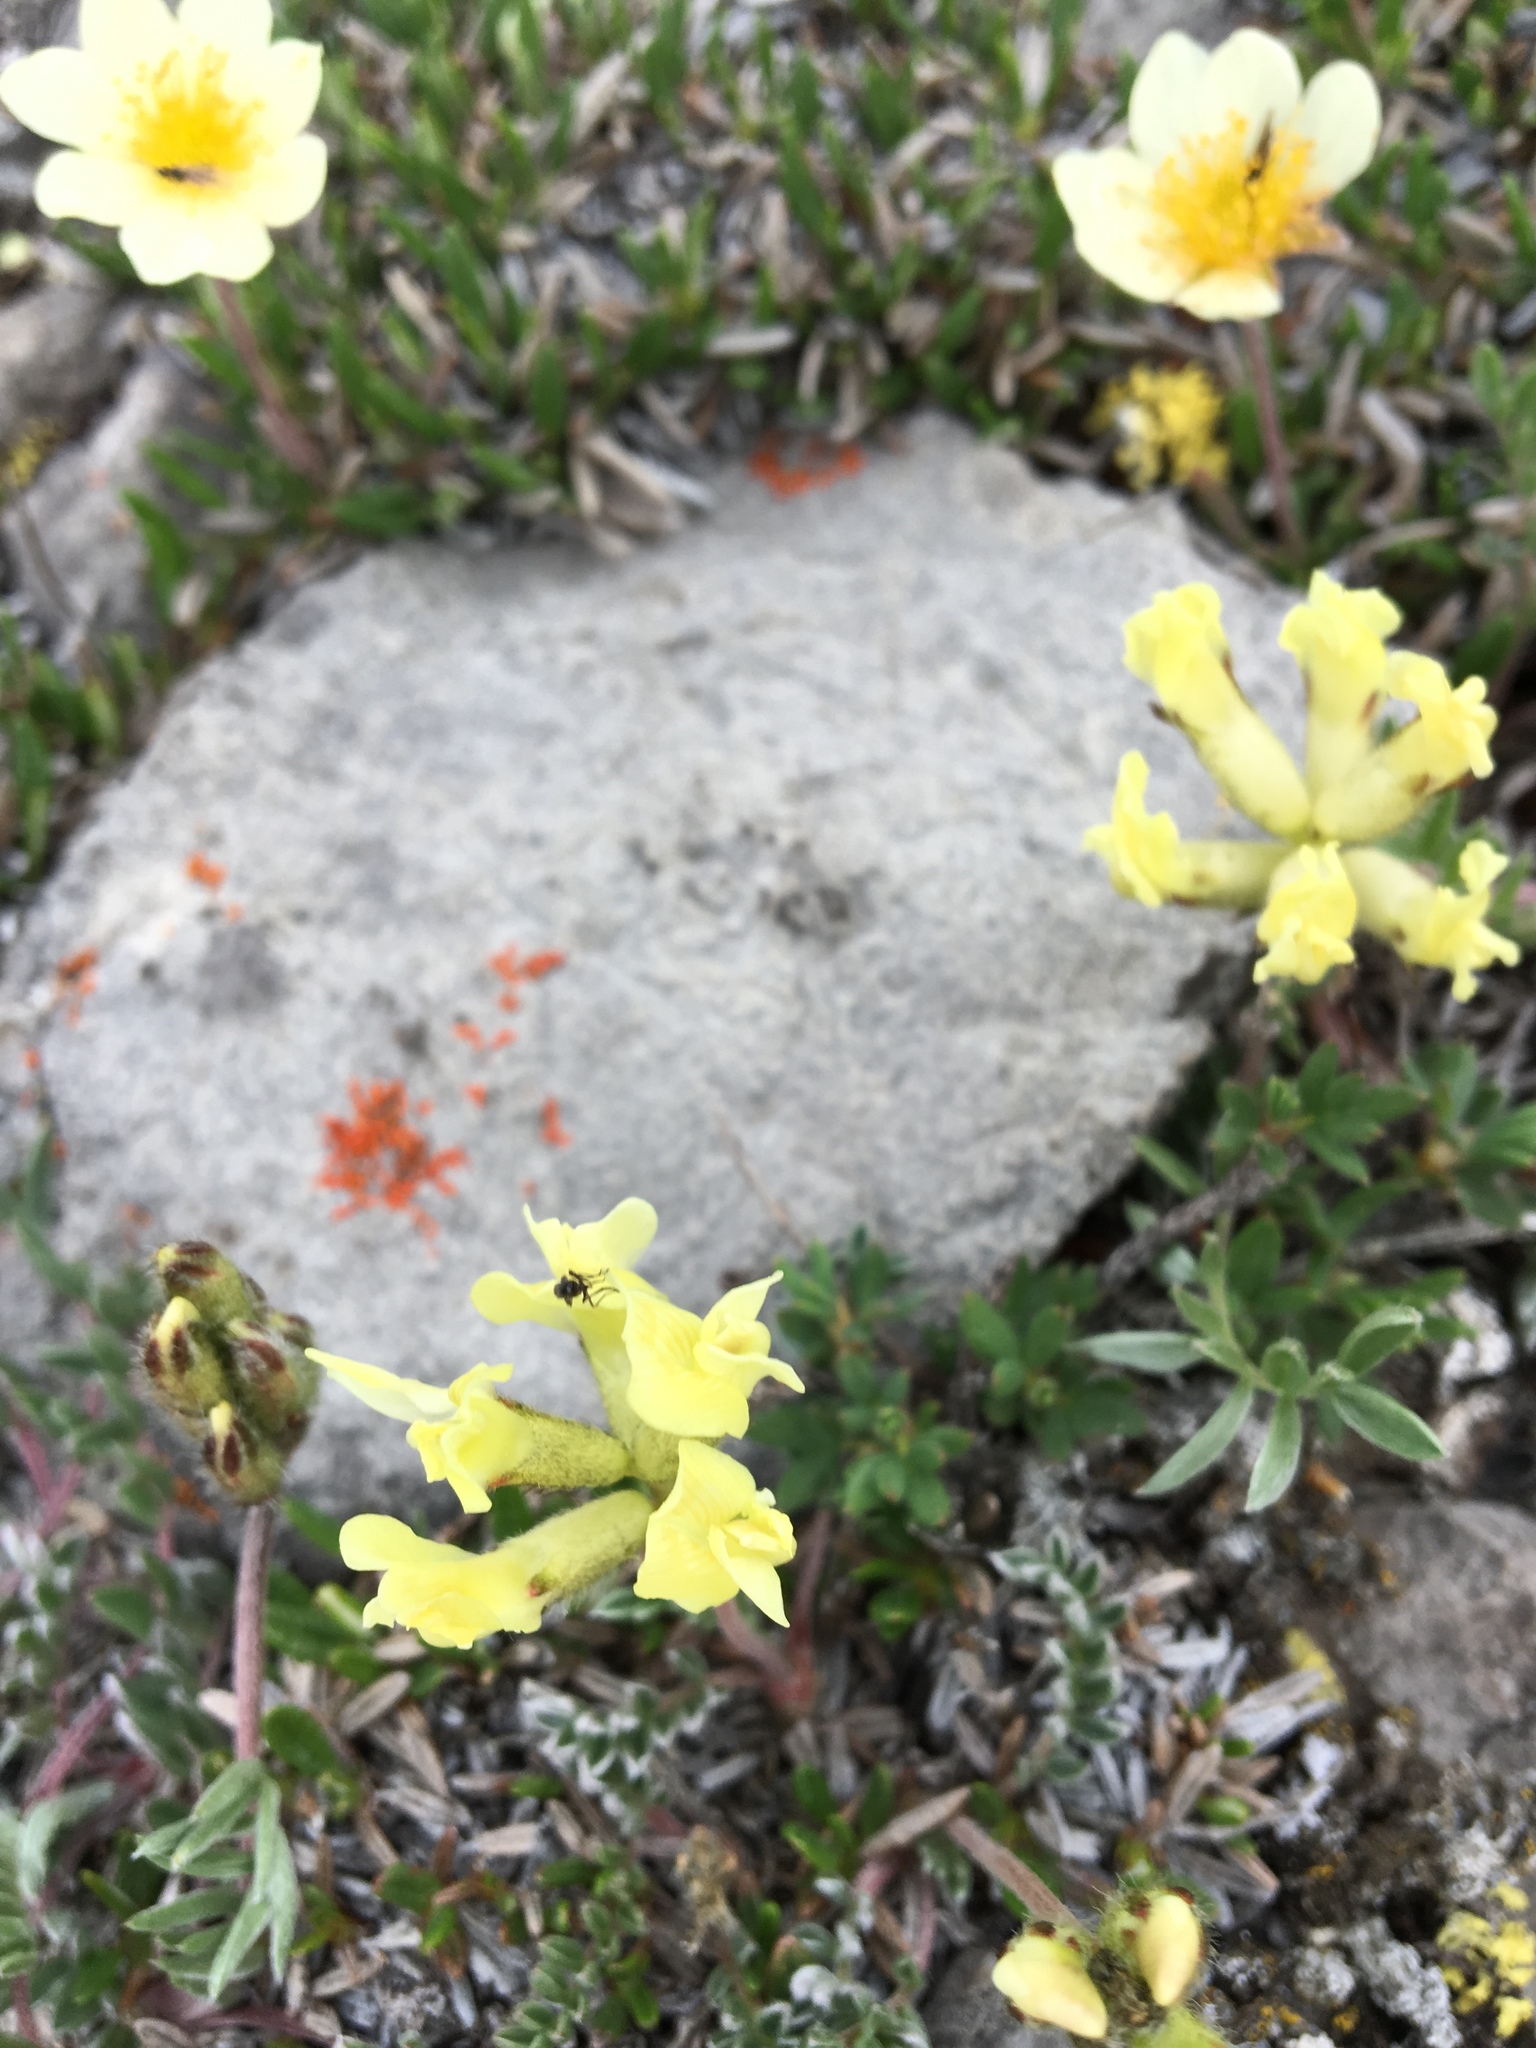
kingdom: Plantae
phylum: Tracheophyta
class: Magnoliopsida
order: Fabales
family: Fabaceae
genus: Oxytropis
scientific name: Oxytropis campestris
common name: Field locoweed
